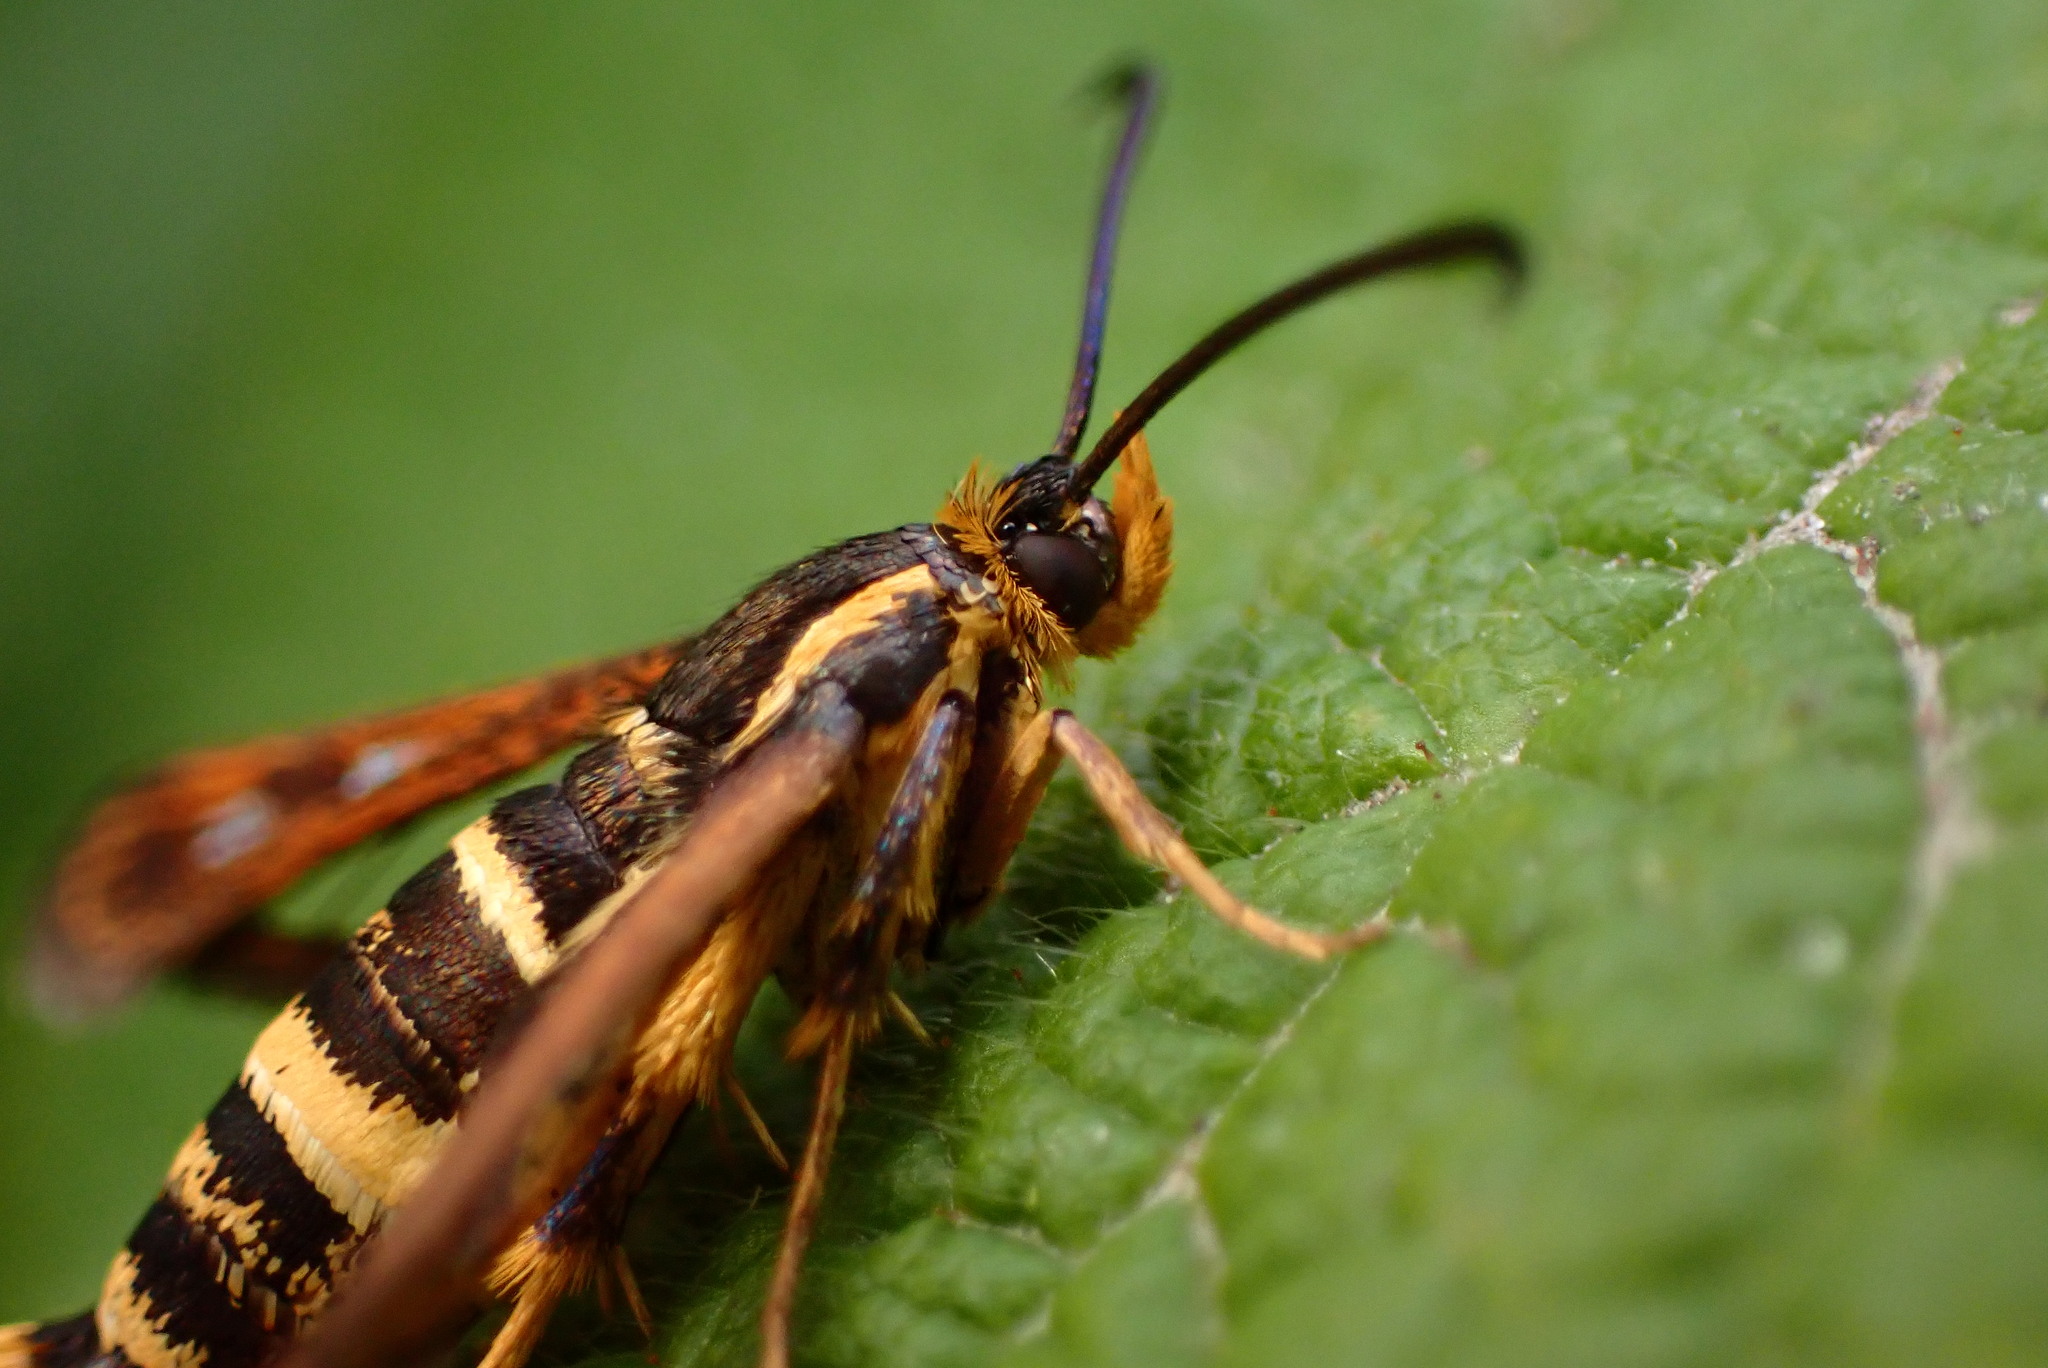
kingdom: Animalia
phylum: Arthropoda
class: Insecta
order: Lepidoptera
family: Sesiidae
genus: Synanthedon
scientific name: Synanthedon bibionipennis
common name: Strawberry crown moth
